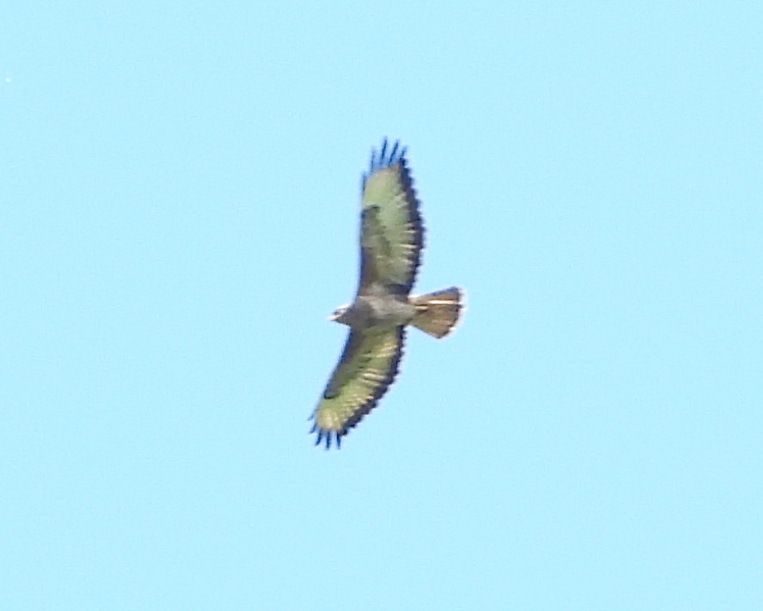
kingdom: Animalia
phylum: Chordata
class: Aves
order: Accipitriformes
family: Accipitridae
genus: Buteo
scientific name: Buteo buteo
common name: Common buzzard
